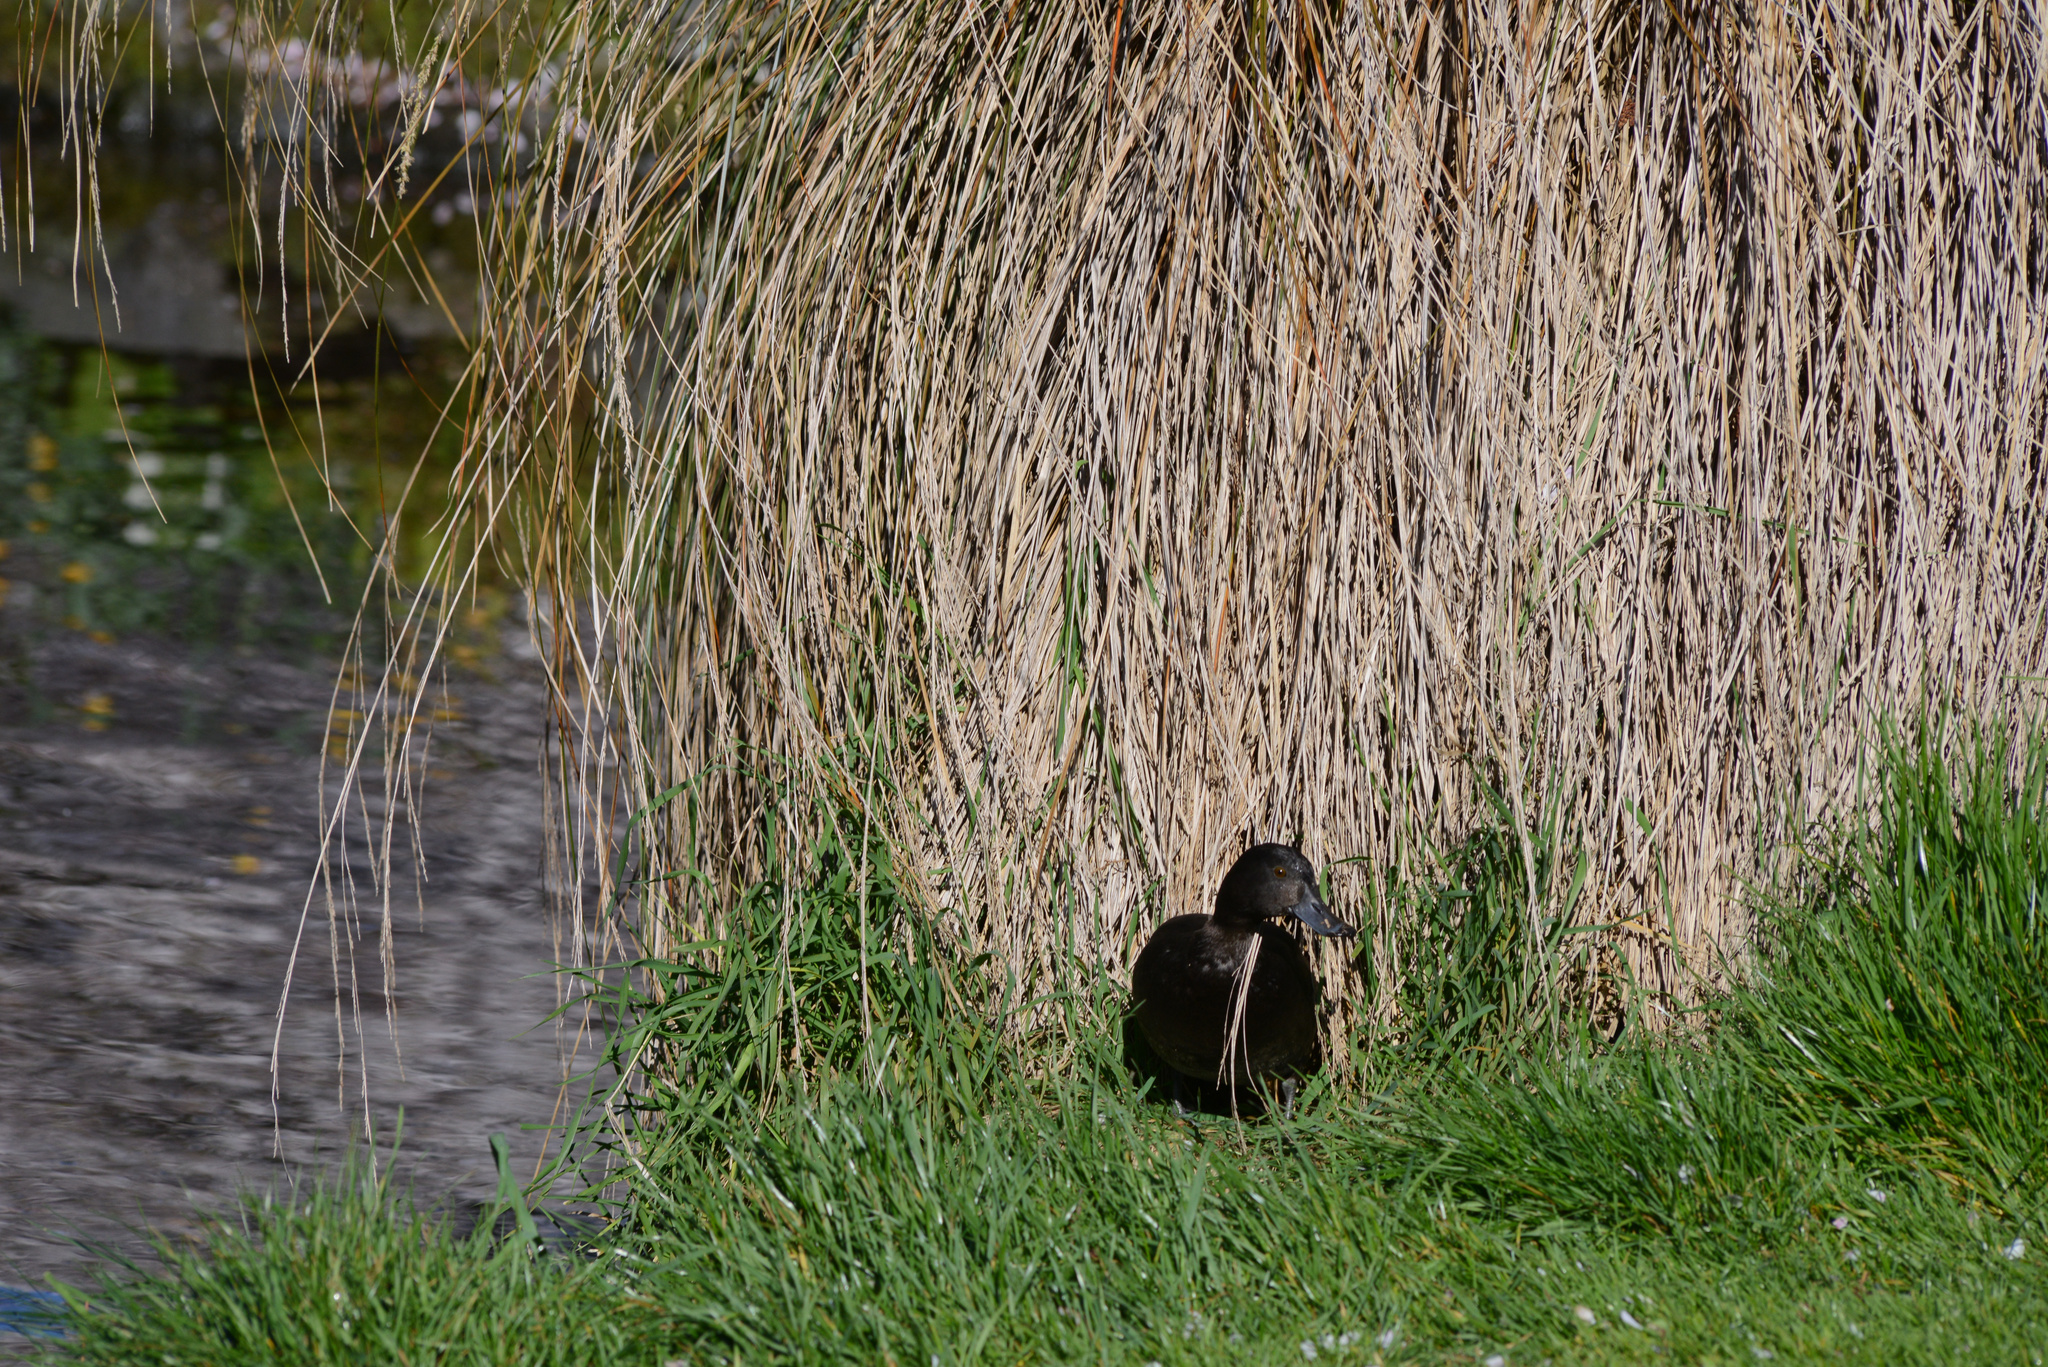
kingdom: Animalia
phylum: Chordata
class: Aves
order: Anseriformes
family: Anatidae
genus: Aythya
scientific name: Aythya novaeseelandiae
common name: New zealand scaup
